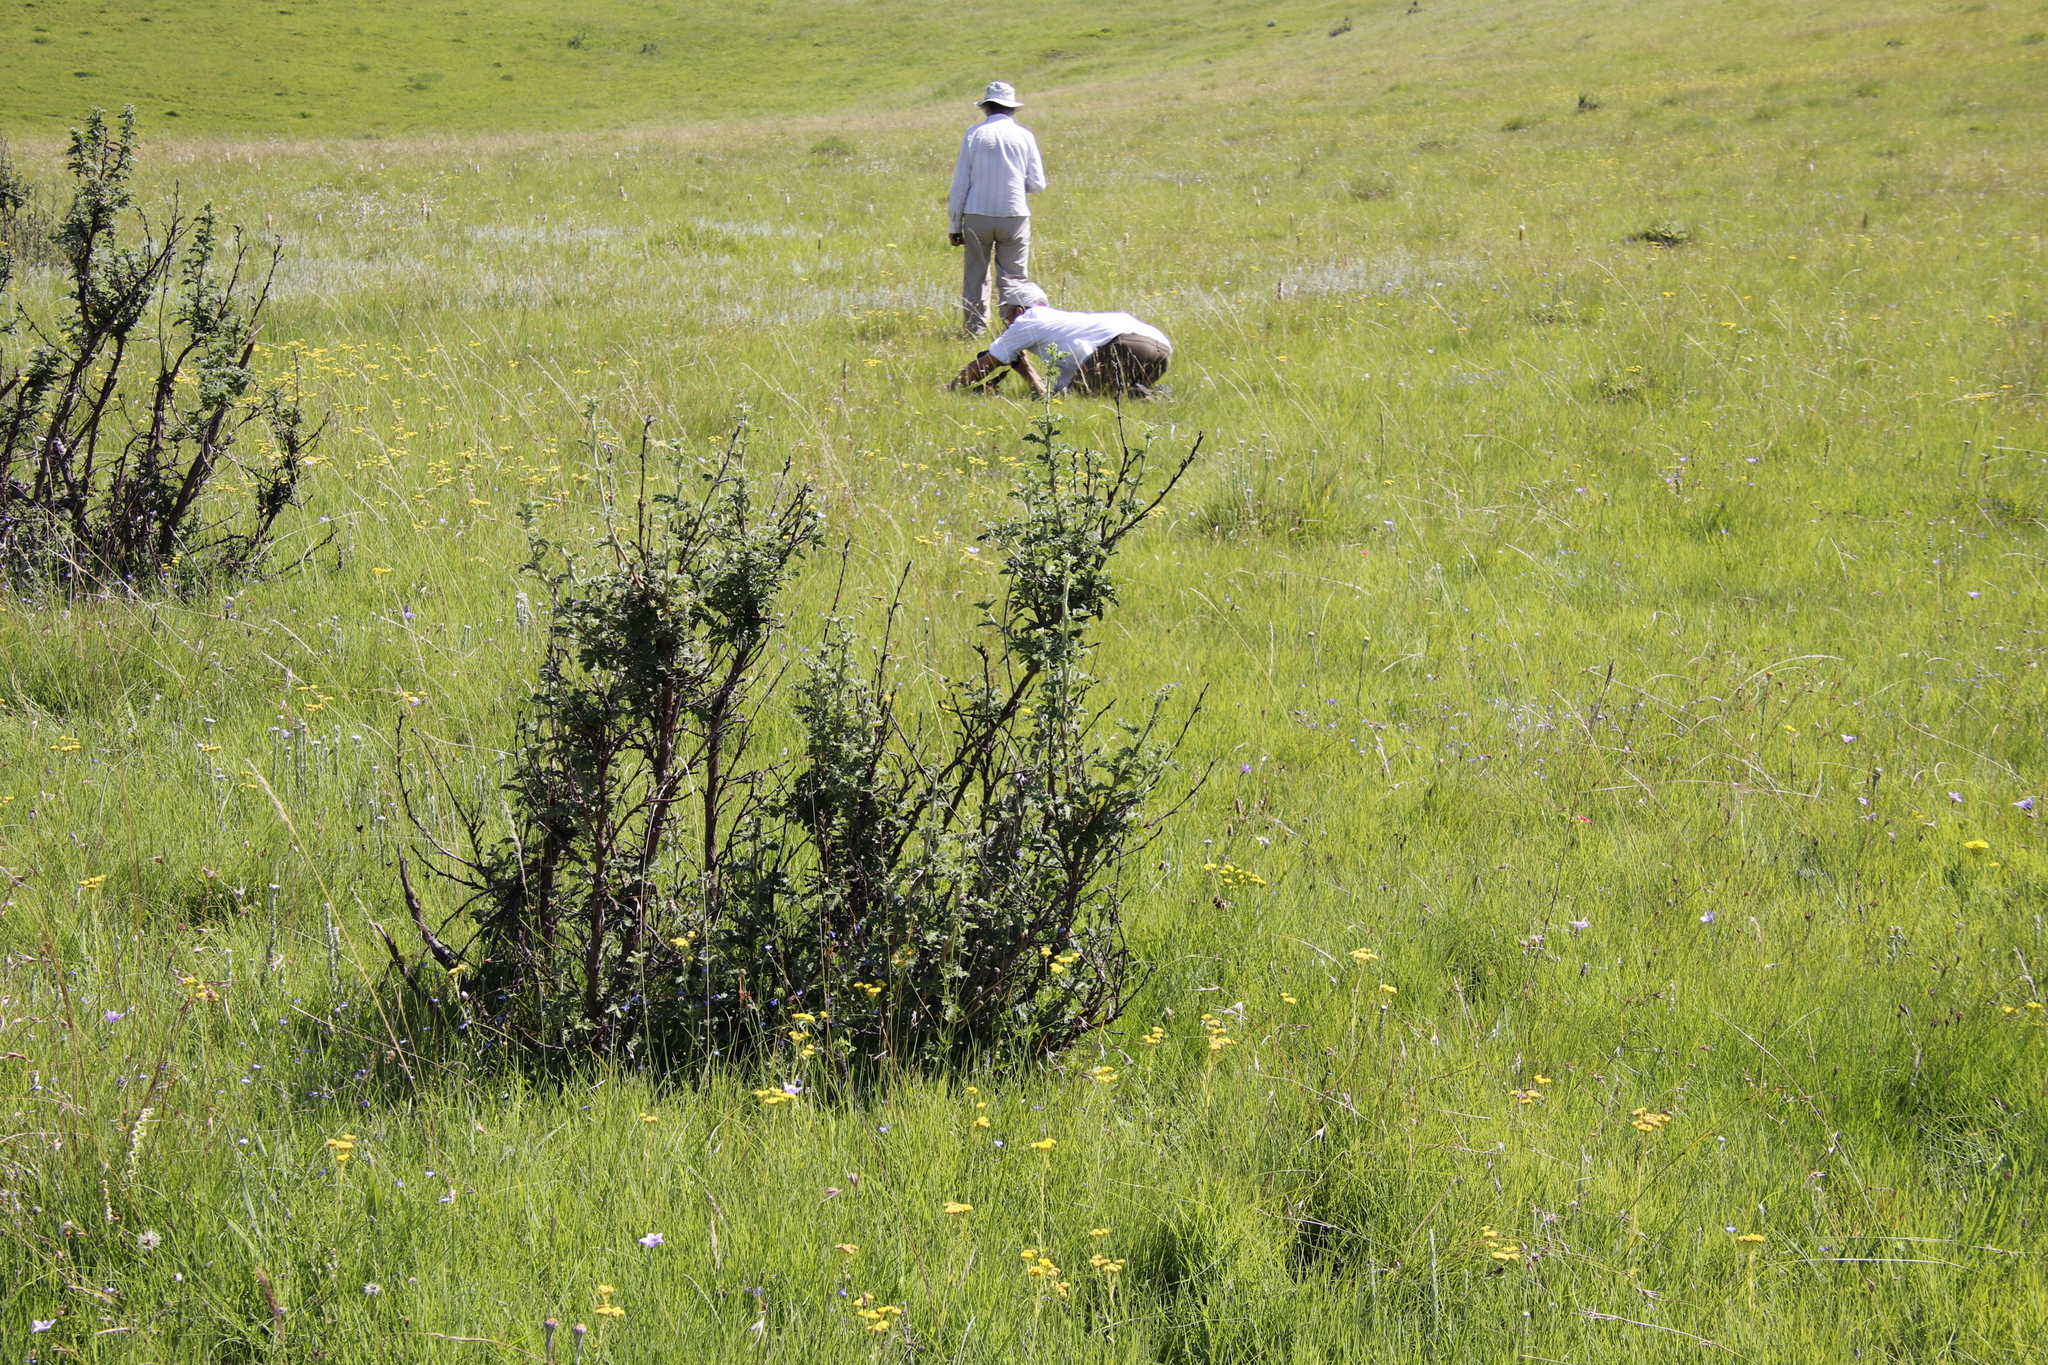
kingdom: Plantae
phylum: Tracheophyta
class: Magnoliopsida
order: Rosales
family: Rosaceae
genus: Leucosidea
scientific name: Leucosidea sericea
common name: Oldwood
